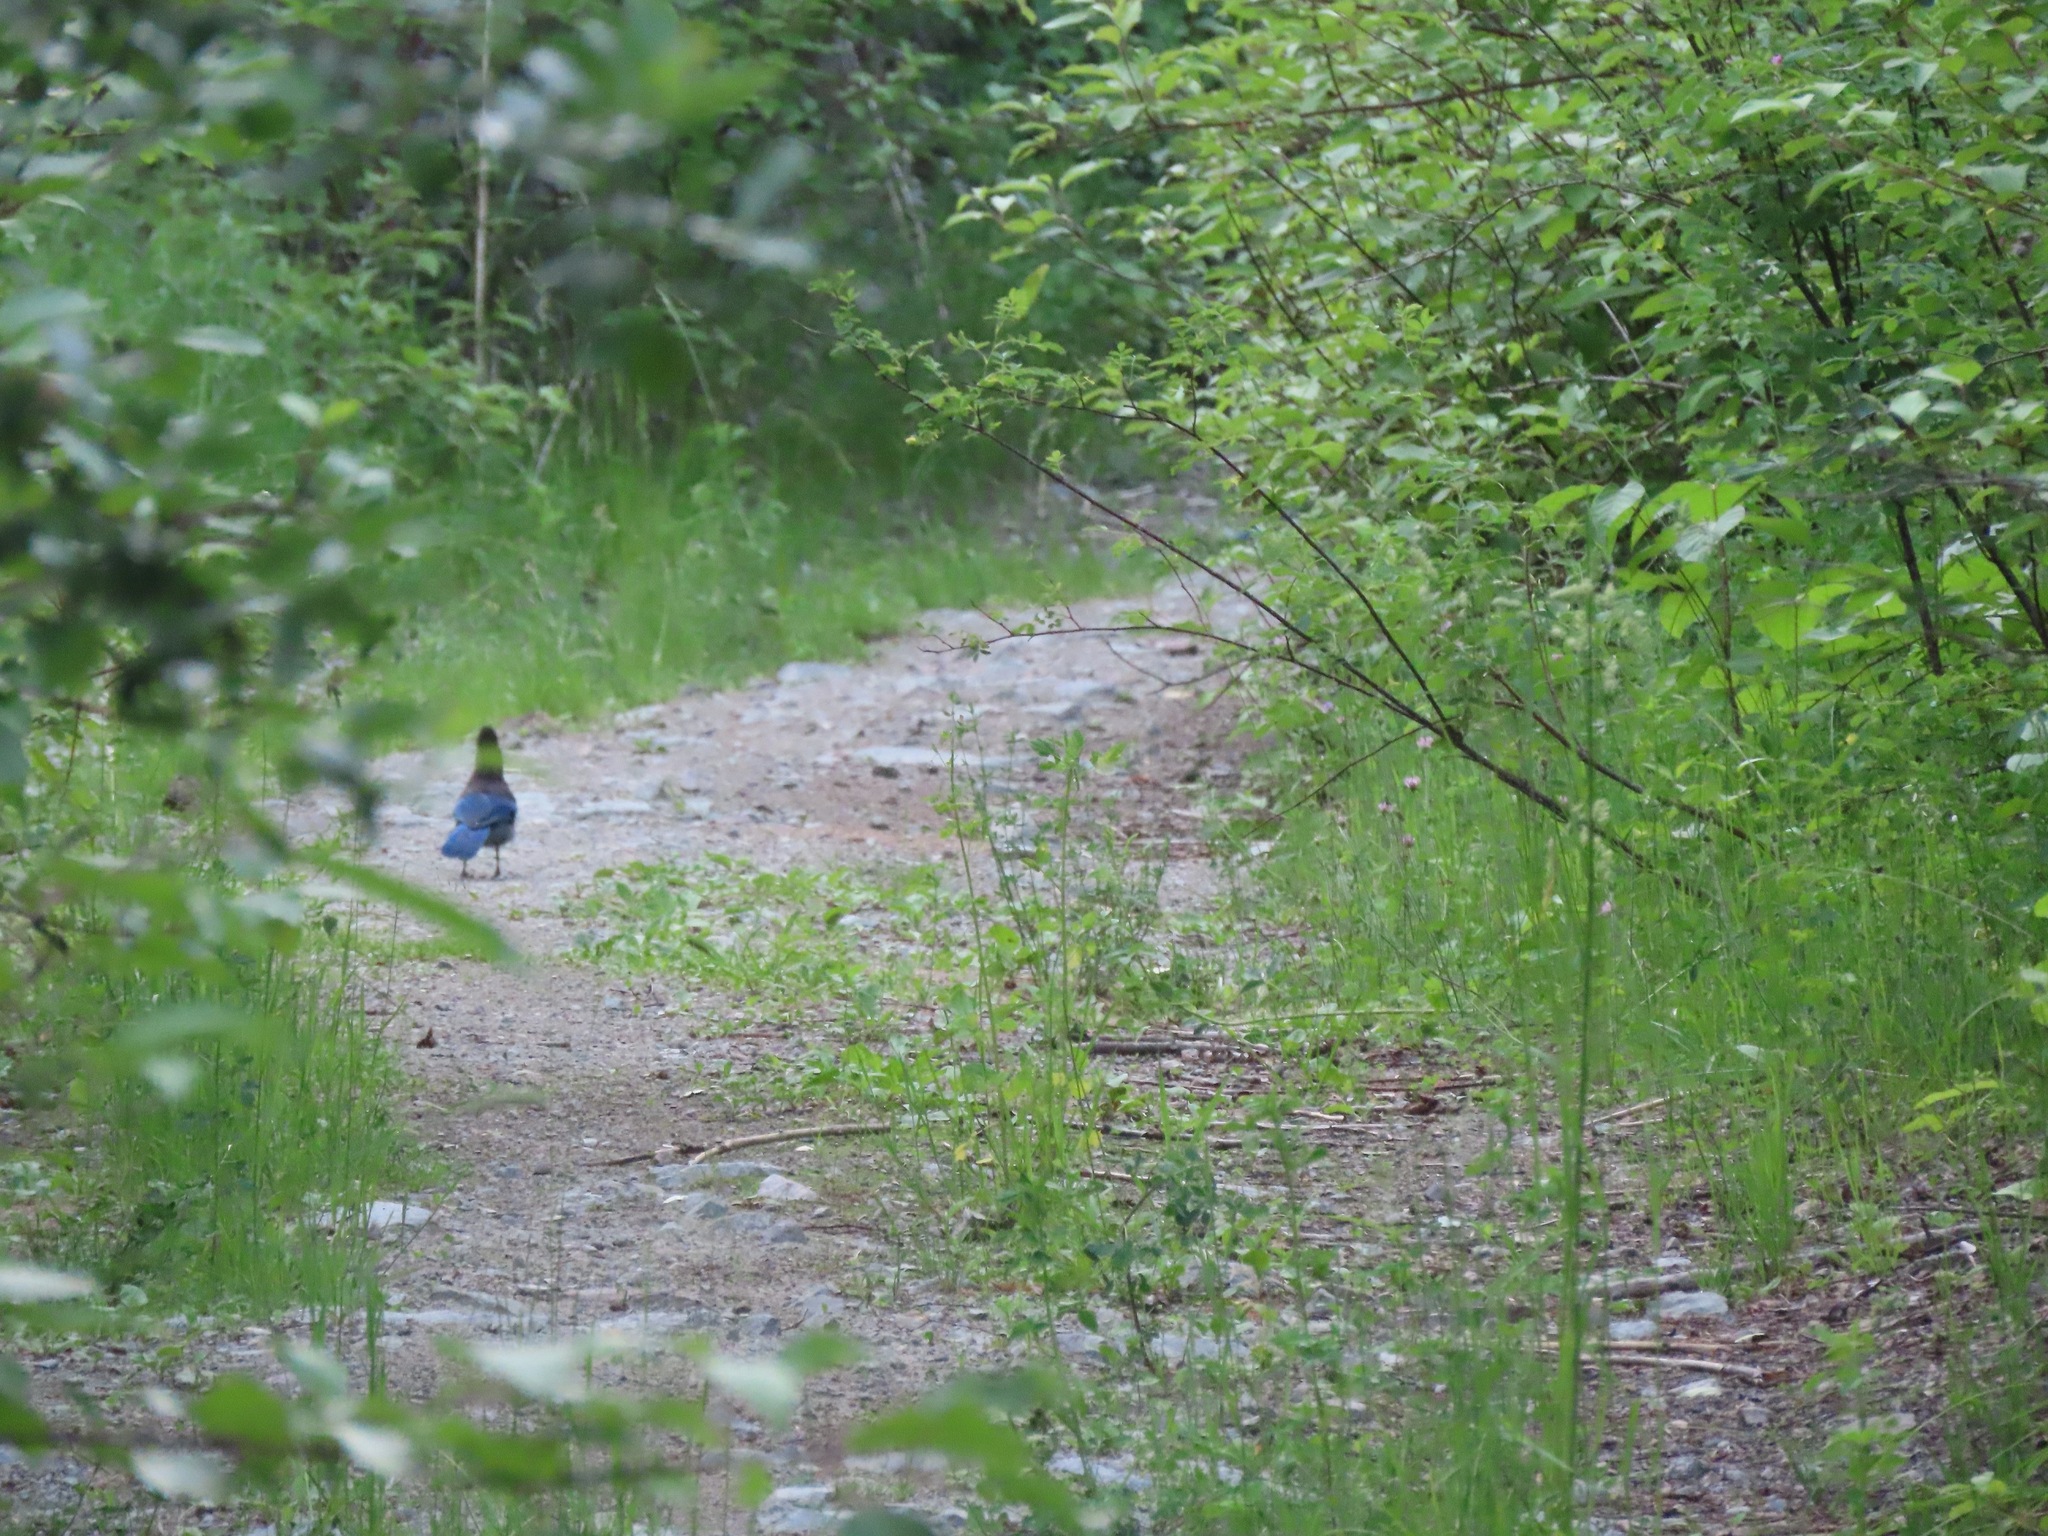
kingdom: Animalia
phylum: Chordata
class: Aves
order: Passeriformes
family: Corvidae
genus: Cyanocitta
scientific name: Cyanocitta stelleri
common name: Steller's jay
